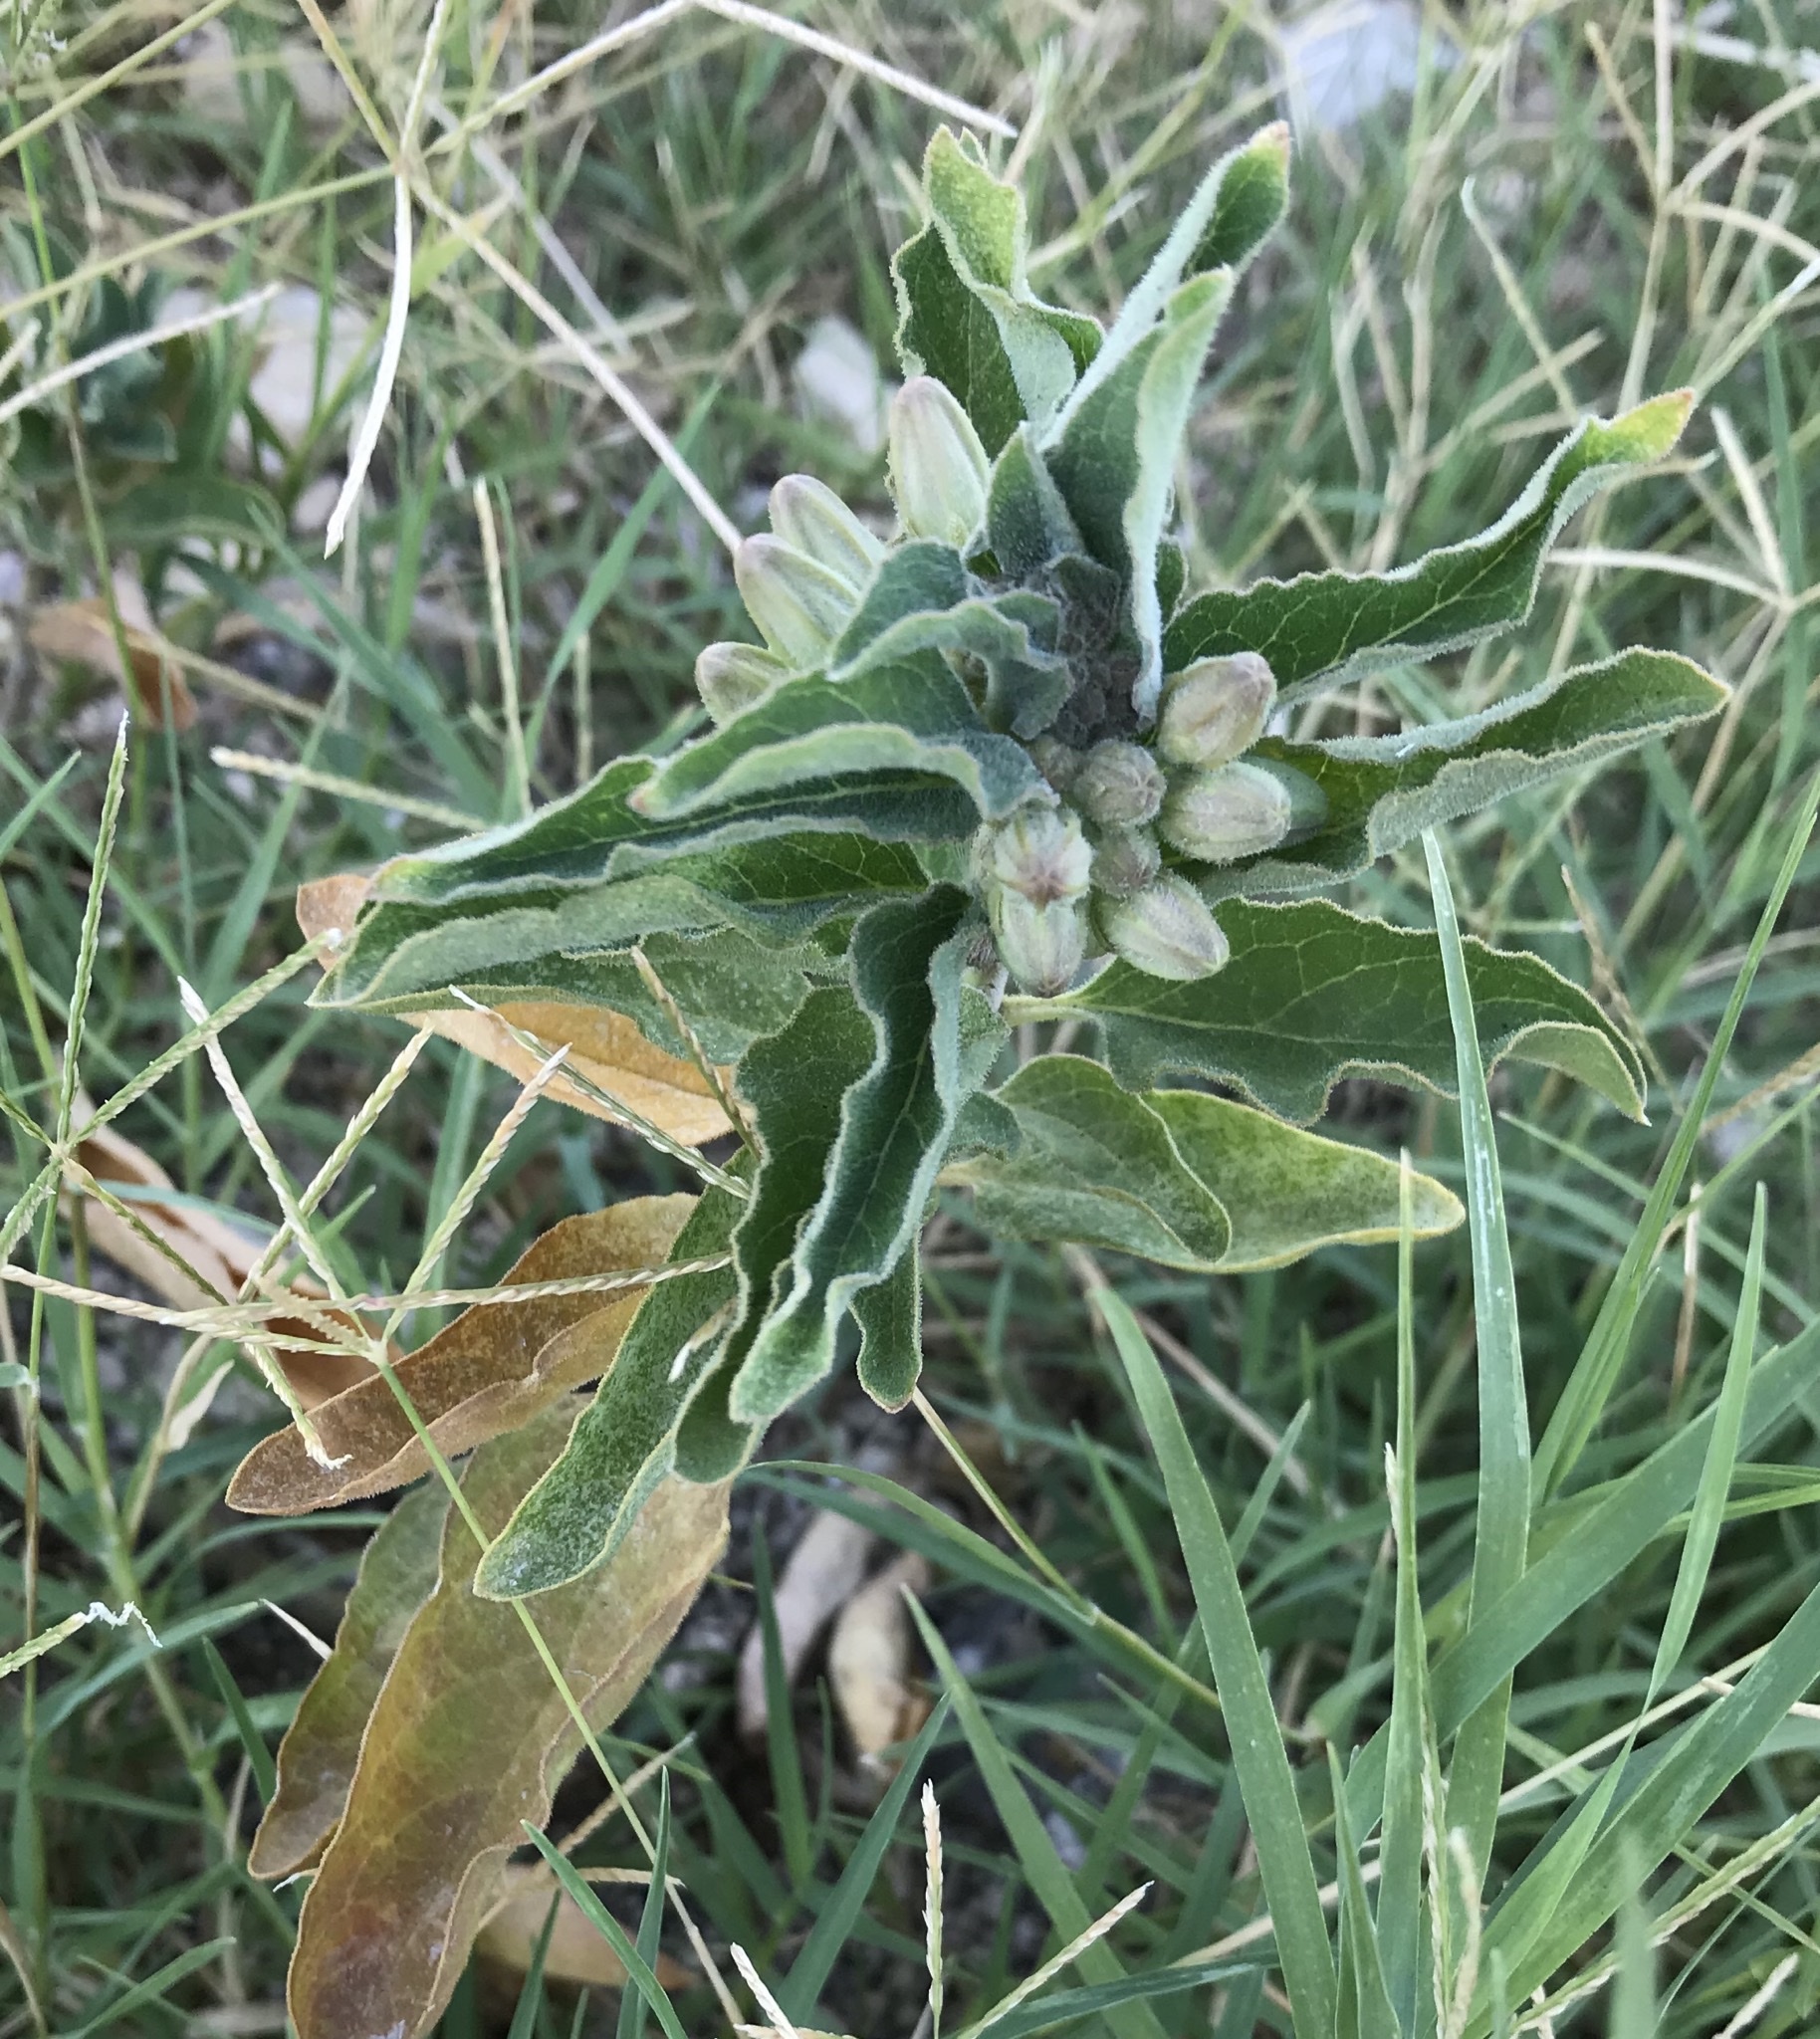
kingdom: Plantae
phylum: Tracheophyta
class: Magnoliopsida
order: Gentianales
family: Apocynaceae
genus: Asclepias
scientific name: Asclepias oenotheroides
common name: Zizotes milkweed
